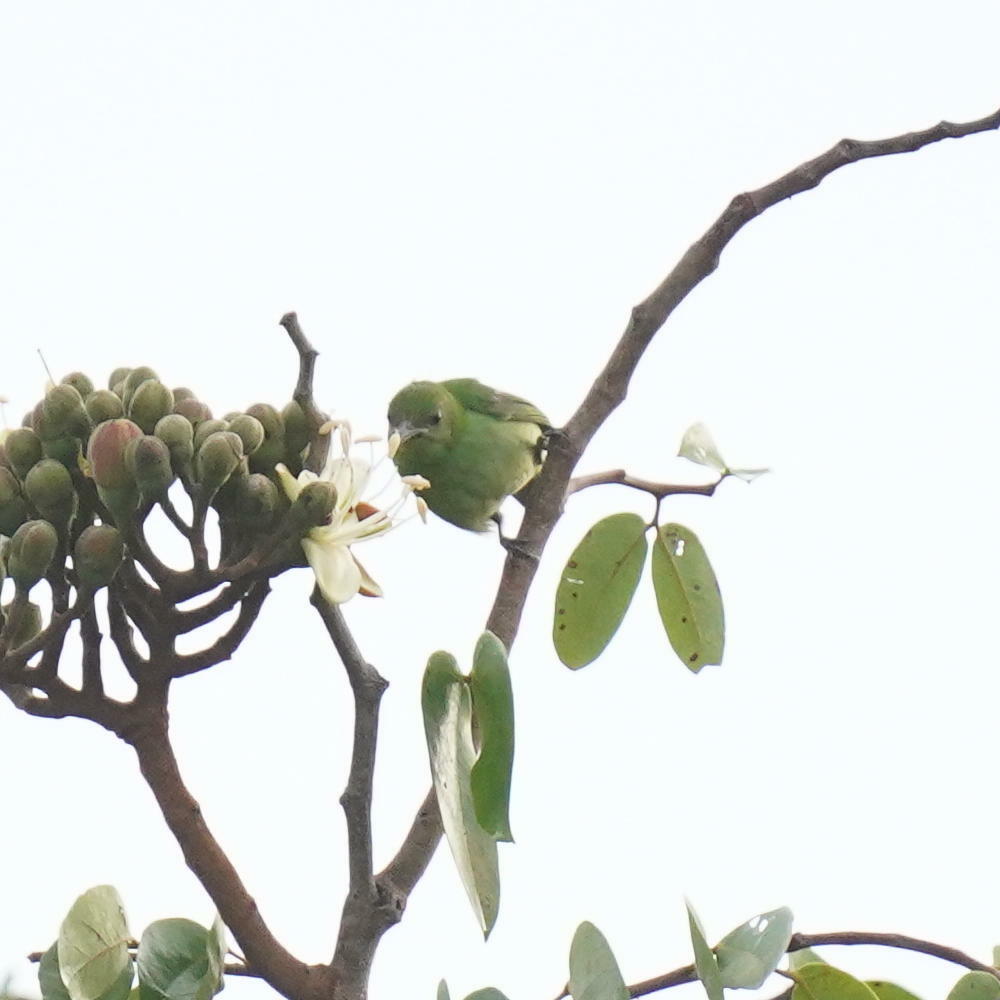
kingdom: Animalia
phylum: Chordata
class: Aves
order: Passeriformes
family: Thraupidae
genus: Chlorophanes
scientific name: Chlorophanes spiza
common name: Green honeycreeper
